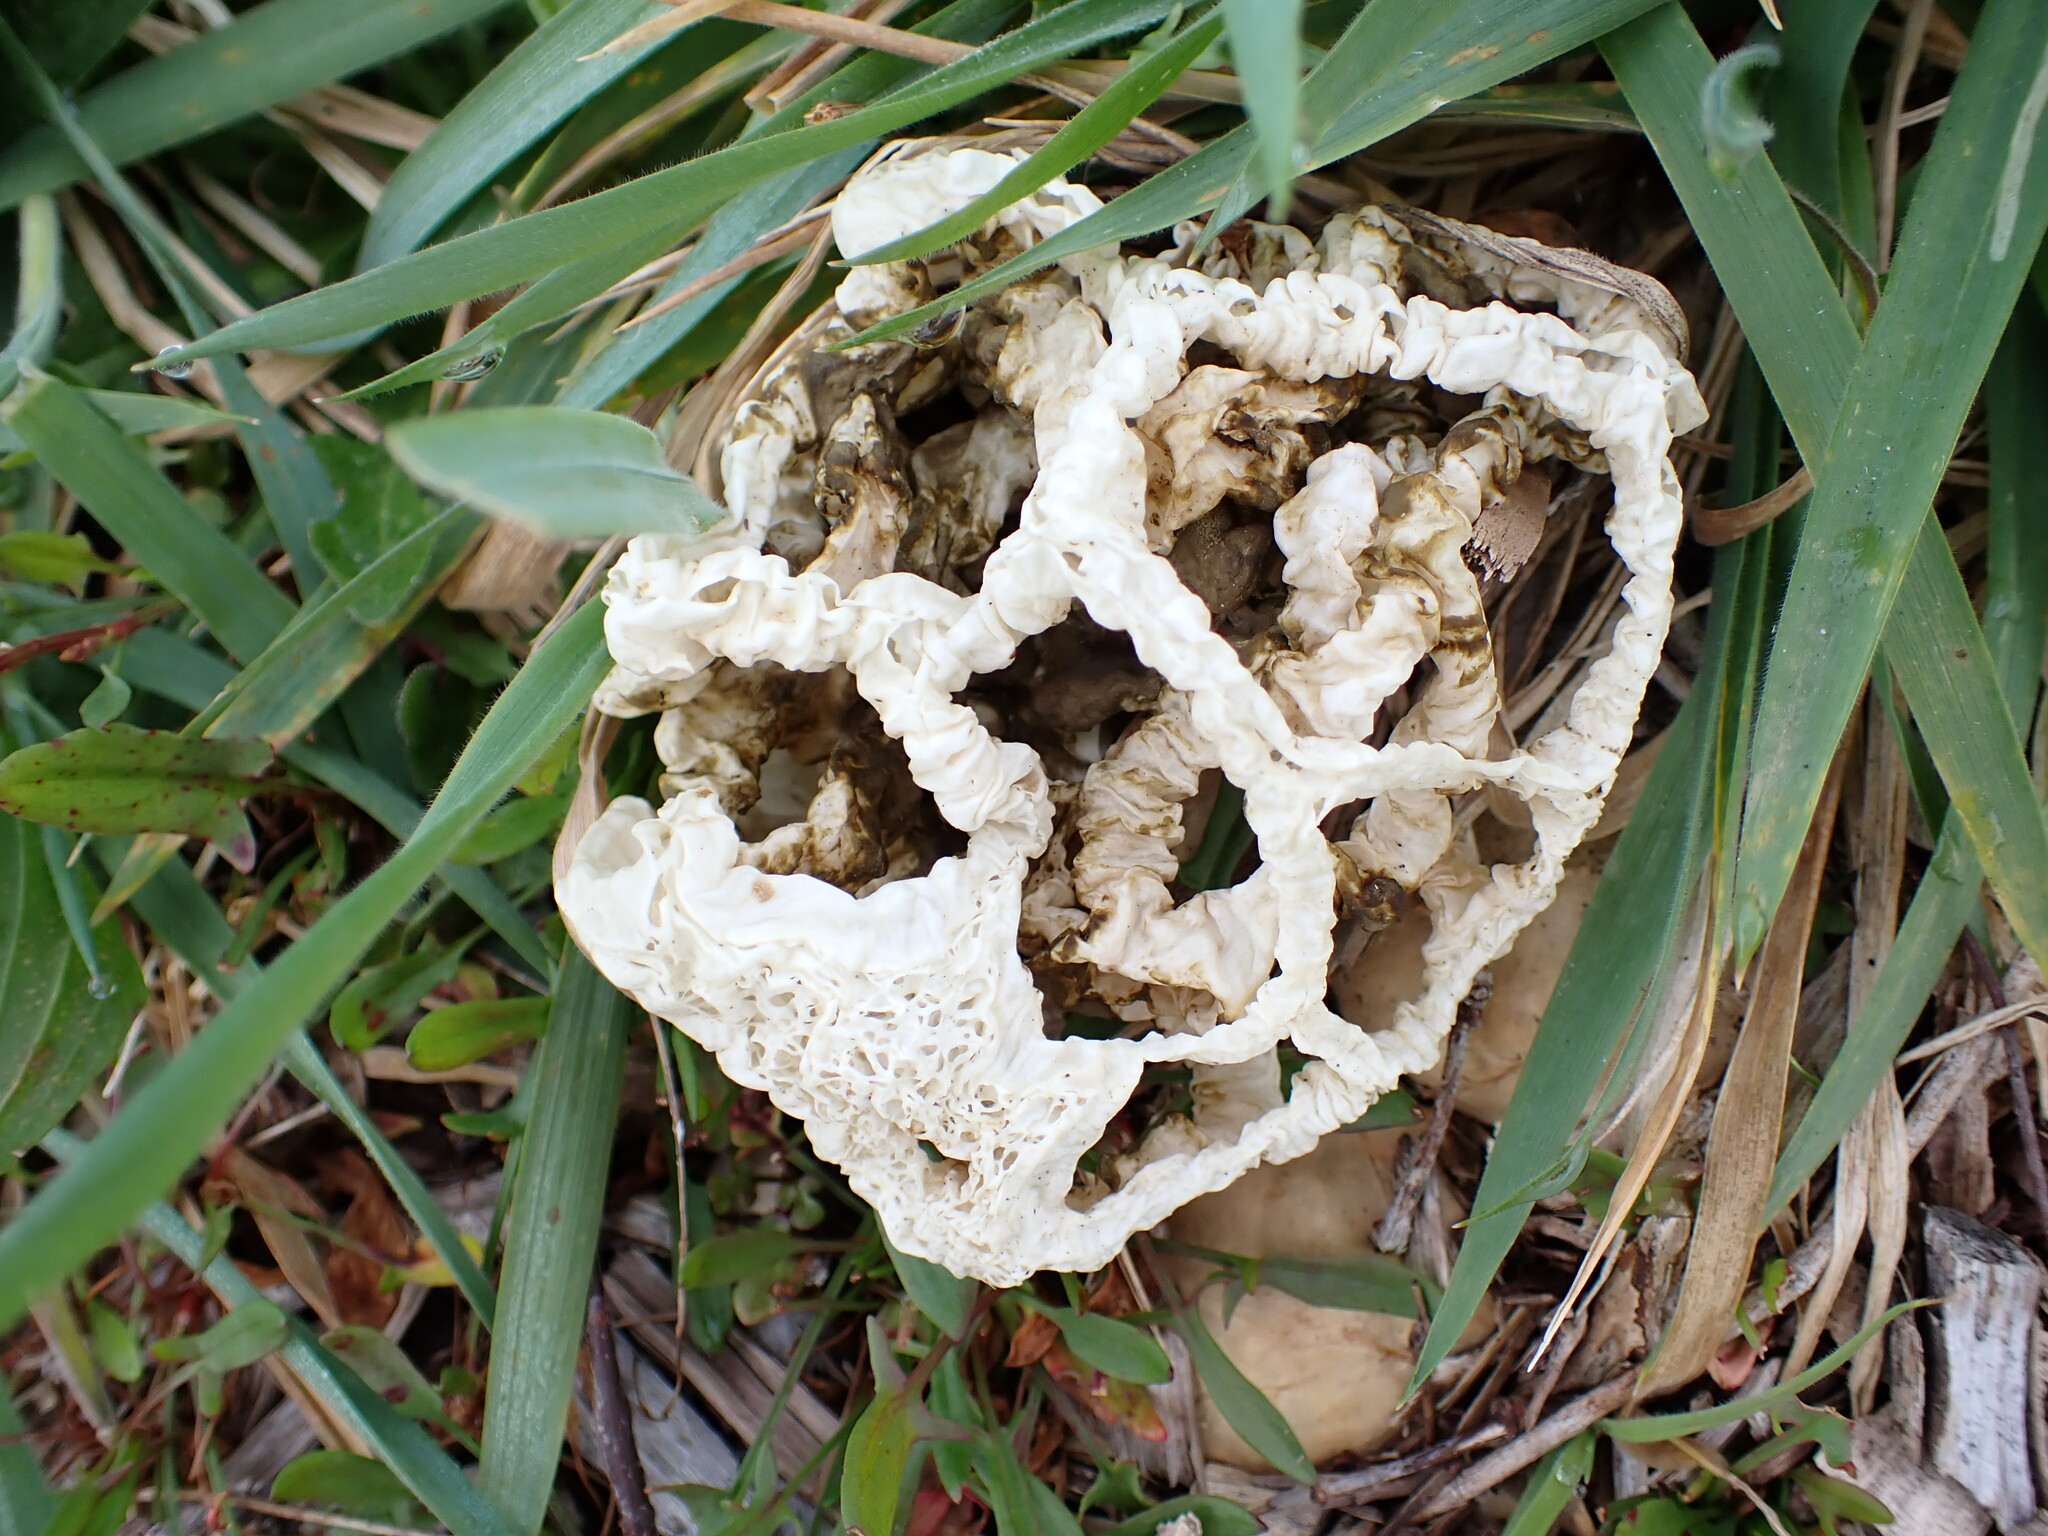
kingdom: Fungi
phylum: Basidiomycota
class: Agaricomycetes
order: Phallales
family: Phallaceae
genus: Ileodictyon
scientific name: Ileodictyon cibarium
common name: Basket fungus
